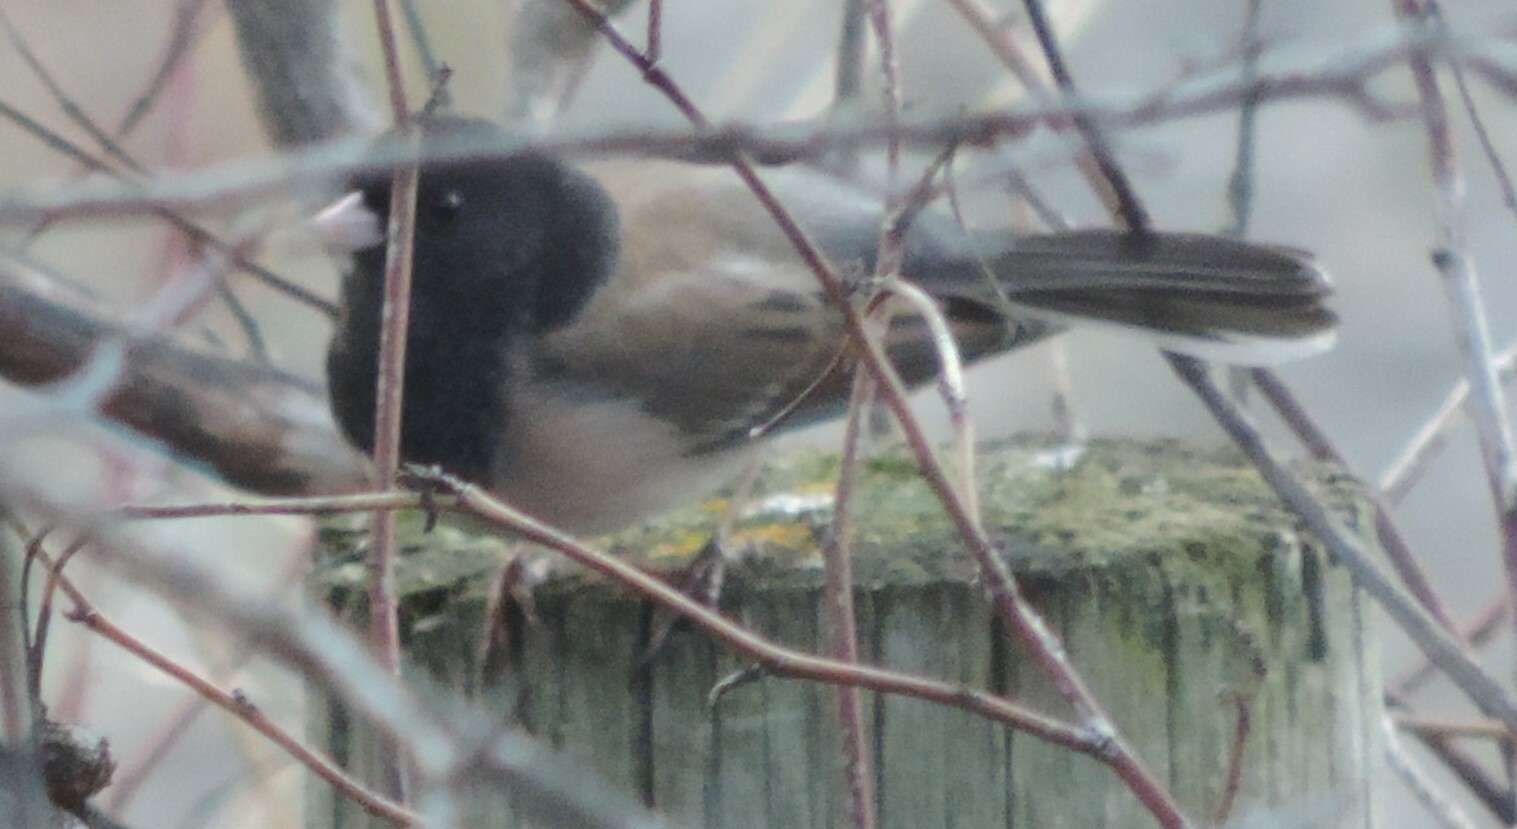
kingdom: Animalia
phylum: Chordata
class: Aves
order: Passeriformes
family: Passerellidae
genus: Junco
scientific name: Junco hyemalis
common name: Dark-eyed junco
